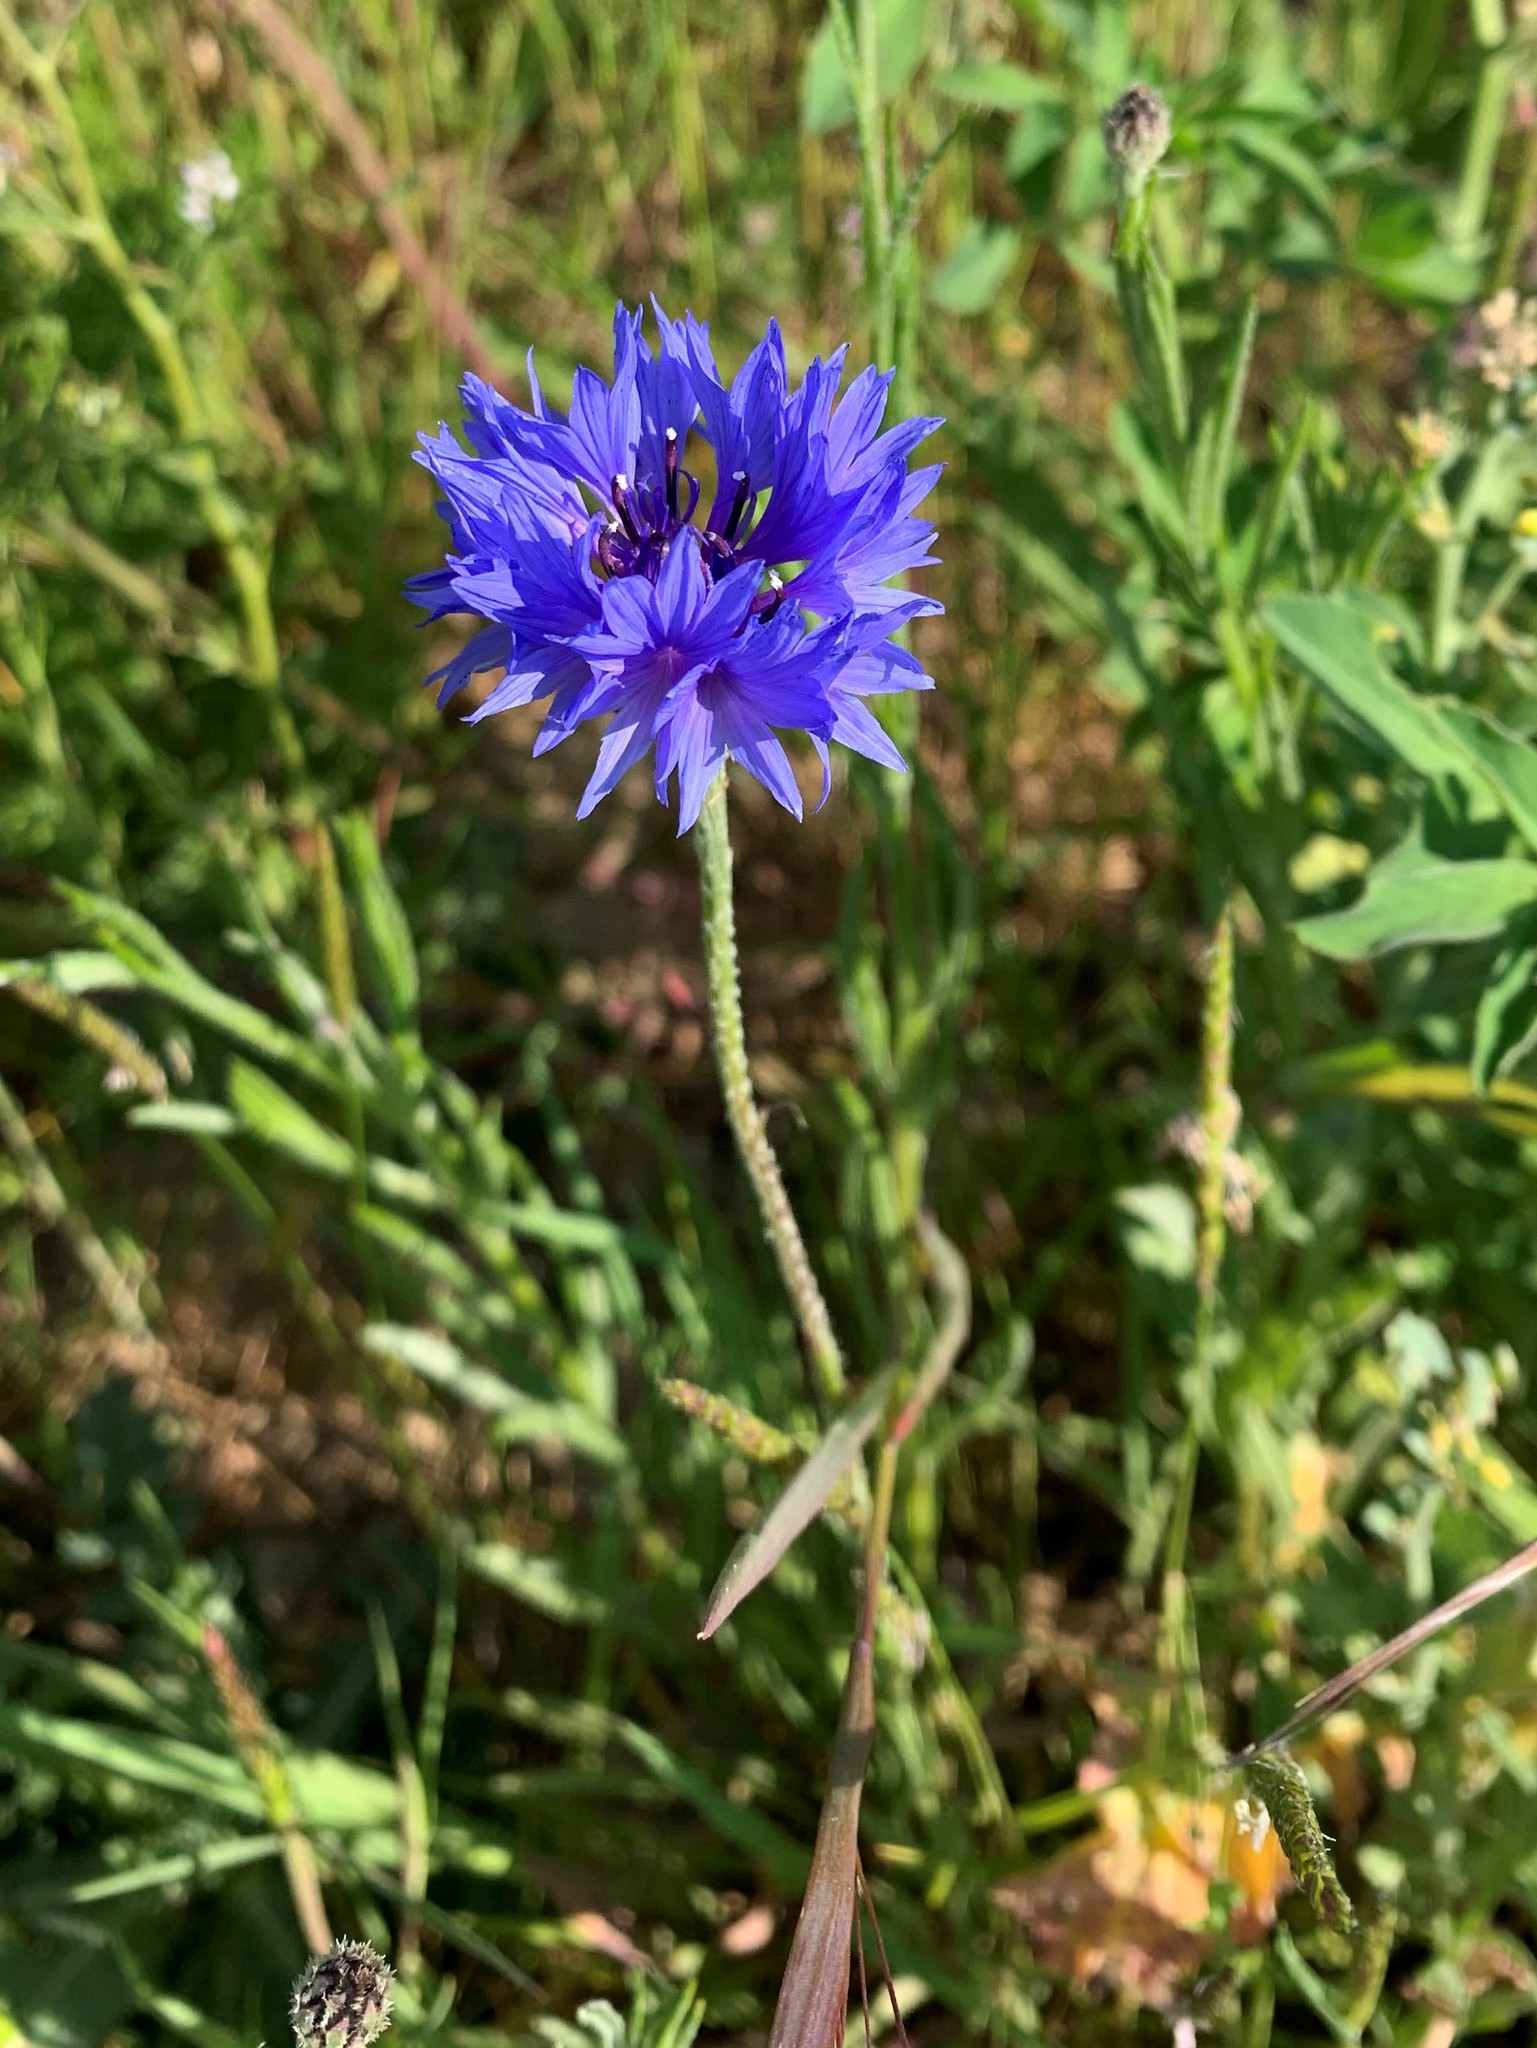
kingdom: Plantae
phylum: Tracheophyta
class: Magnoliopsida
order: Asterales
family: Asteraceae
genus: Centaurea
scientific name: Centaurea cyanus
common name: Cornflower
